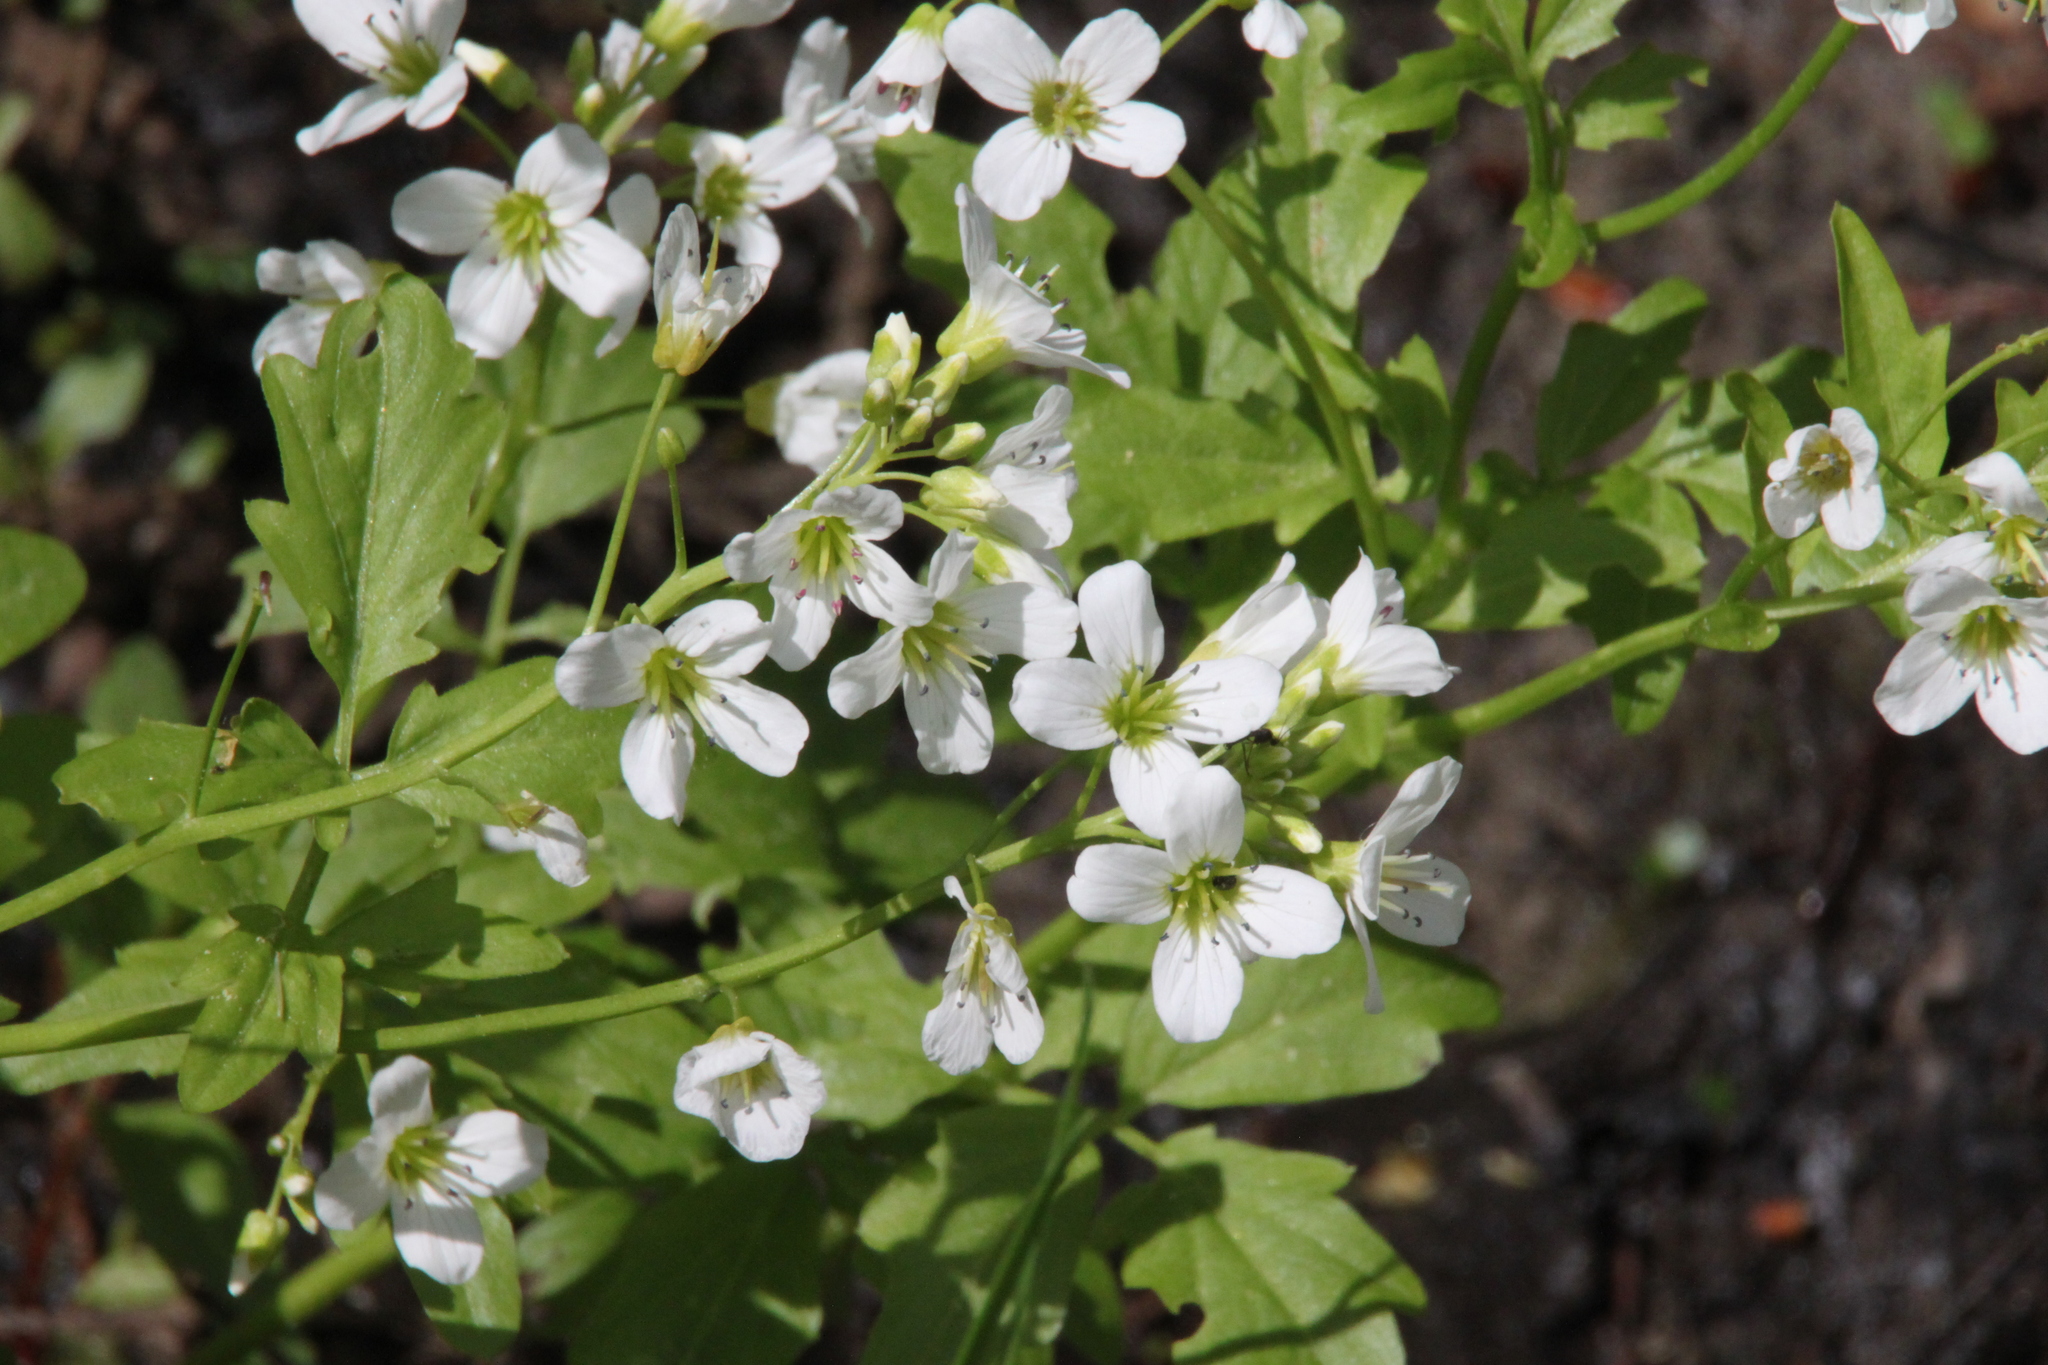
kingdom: Plantae
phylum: Tracheophyta
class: Magnoliopsida
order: Brassicales
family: Brassicaceae
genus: Cardamine
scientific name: Cardamine amara
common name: Large bitter-cress
